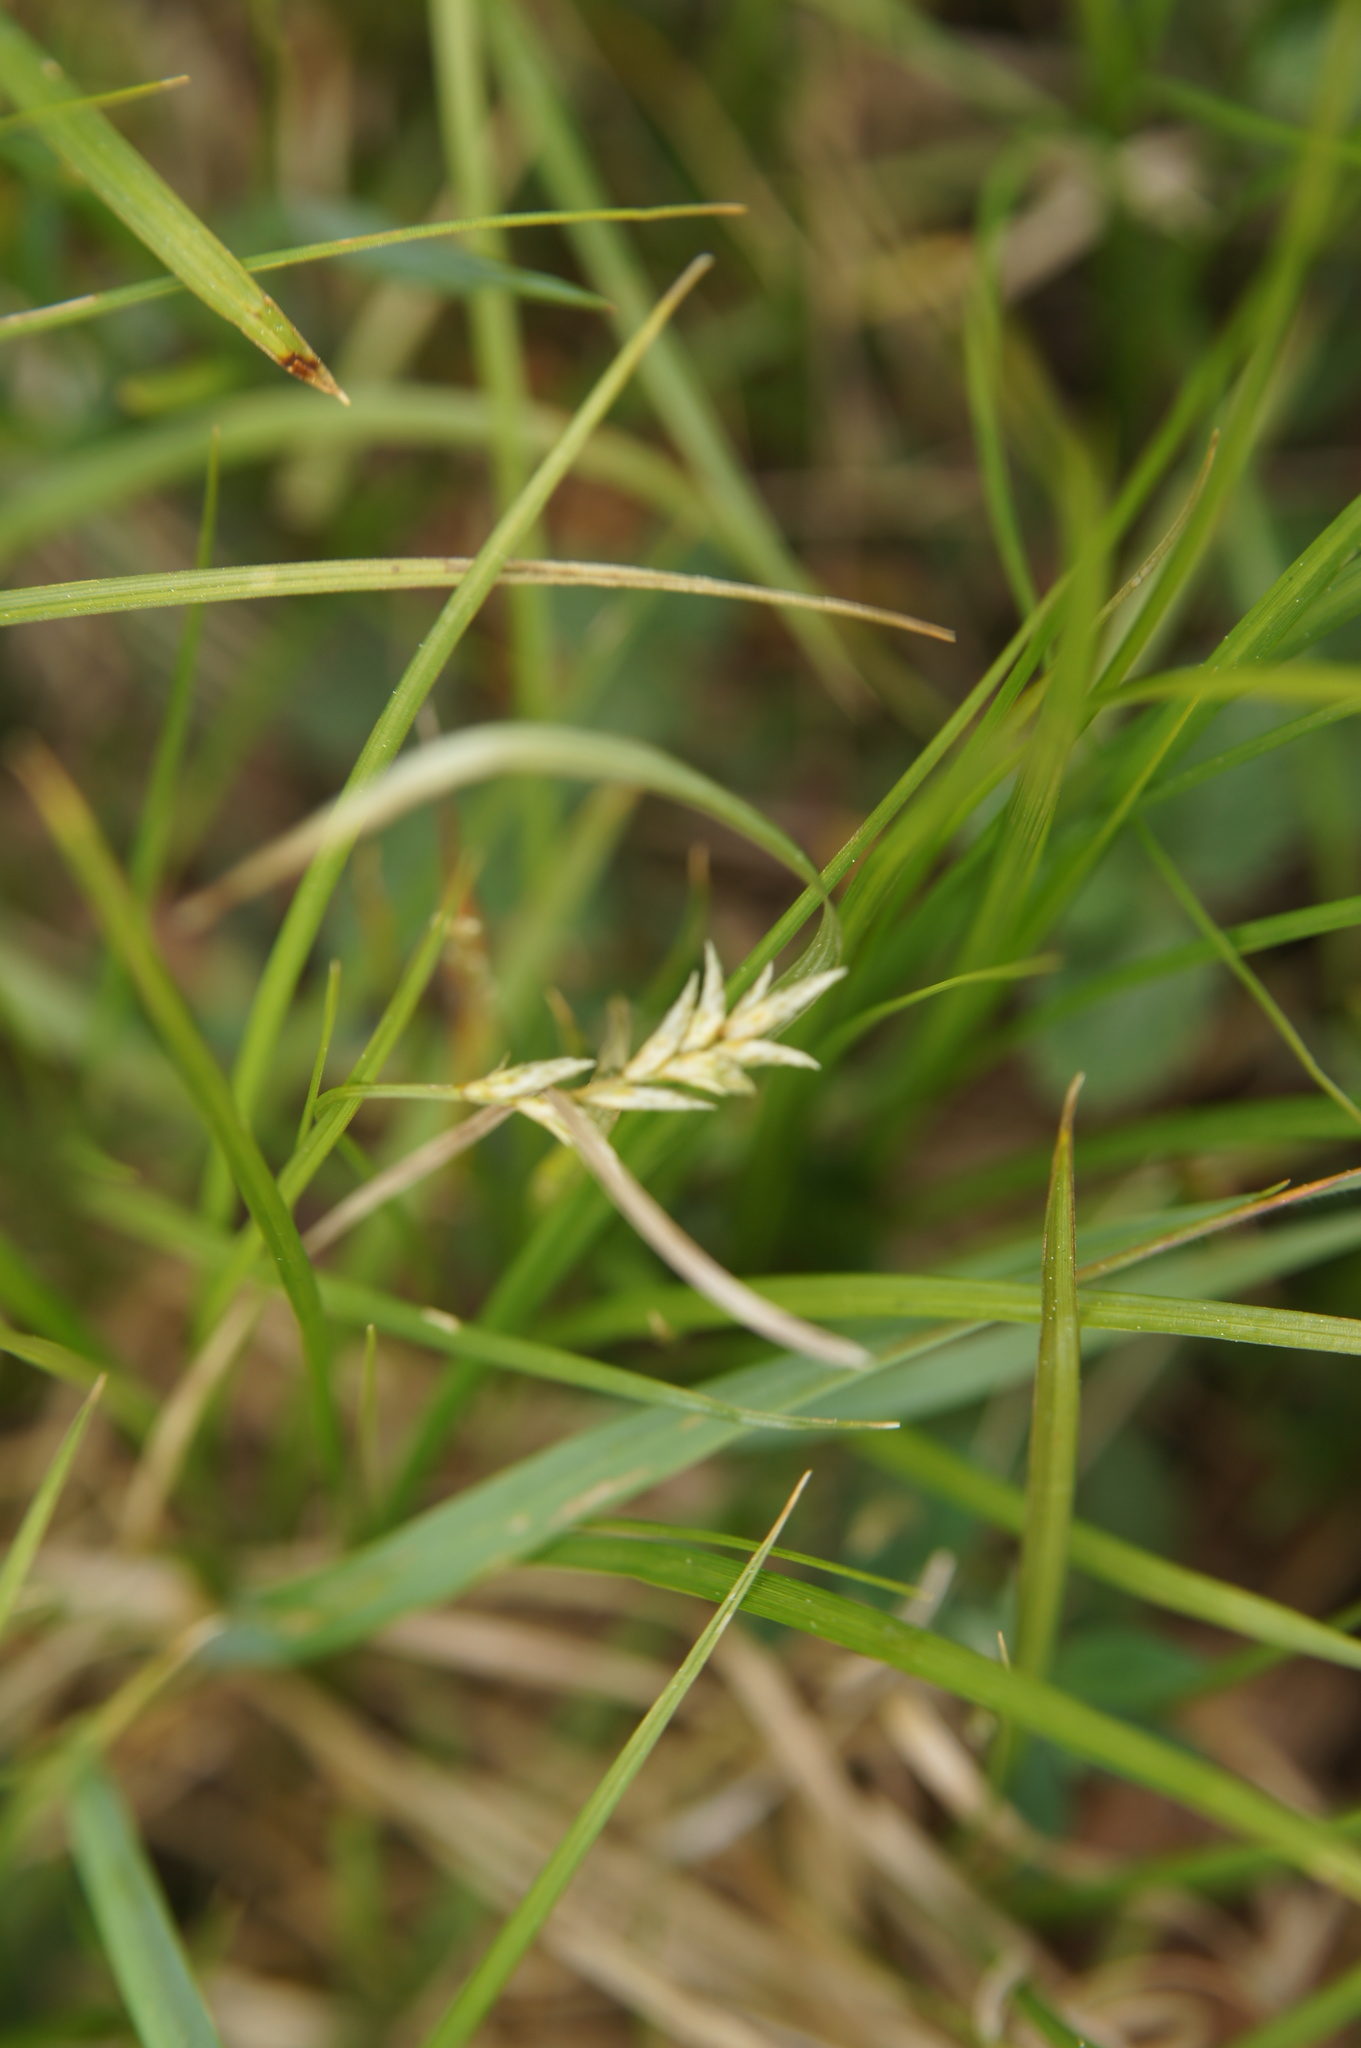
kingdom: Plantae
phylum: Tracheophyta
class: Liliopsida
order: Poales
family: Cyperaceae
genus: Carex
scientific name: Carex brizoides
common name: Quaking-grass sedge
